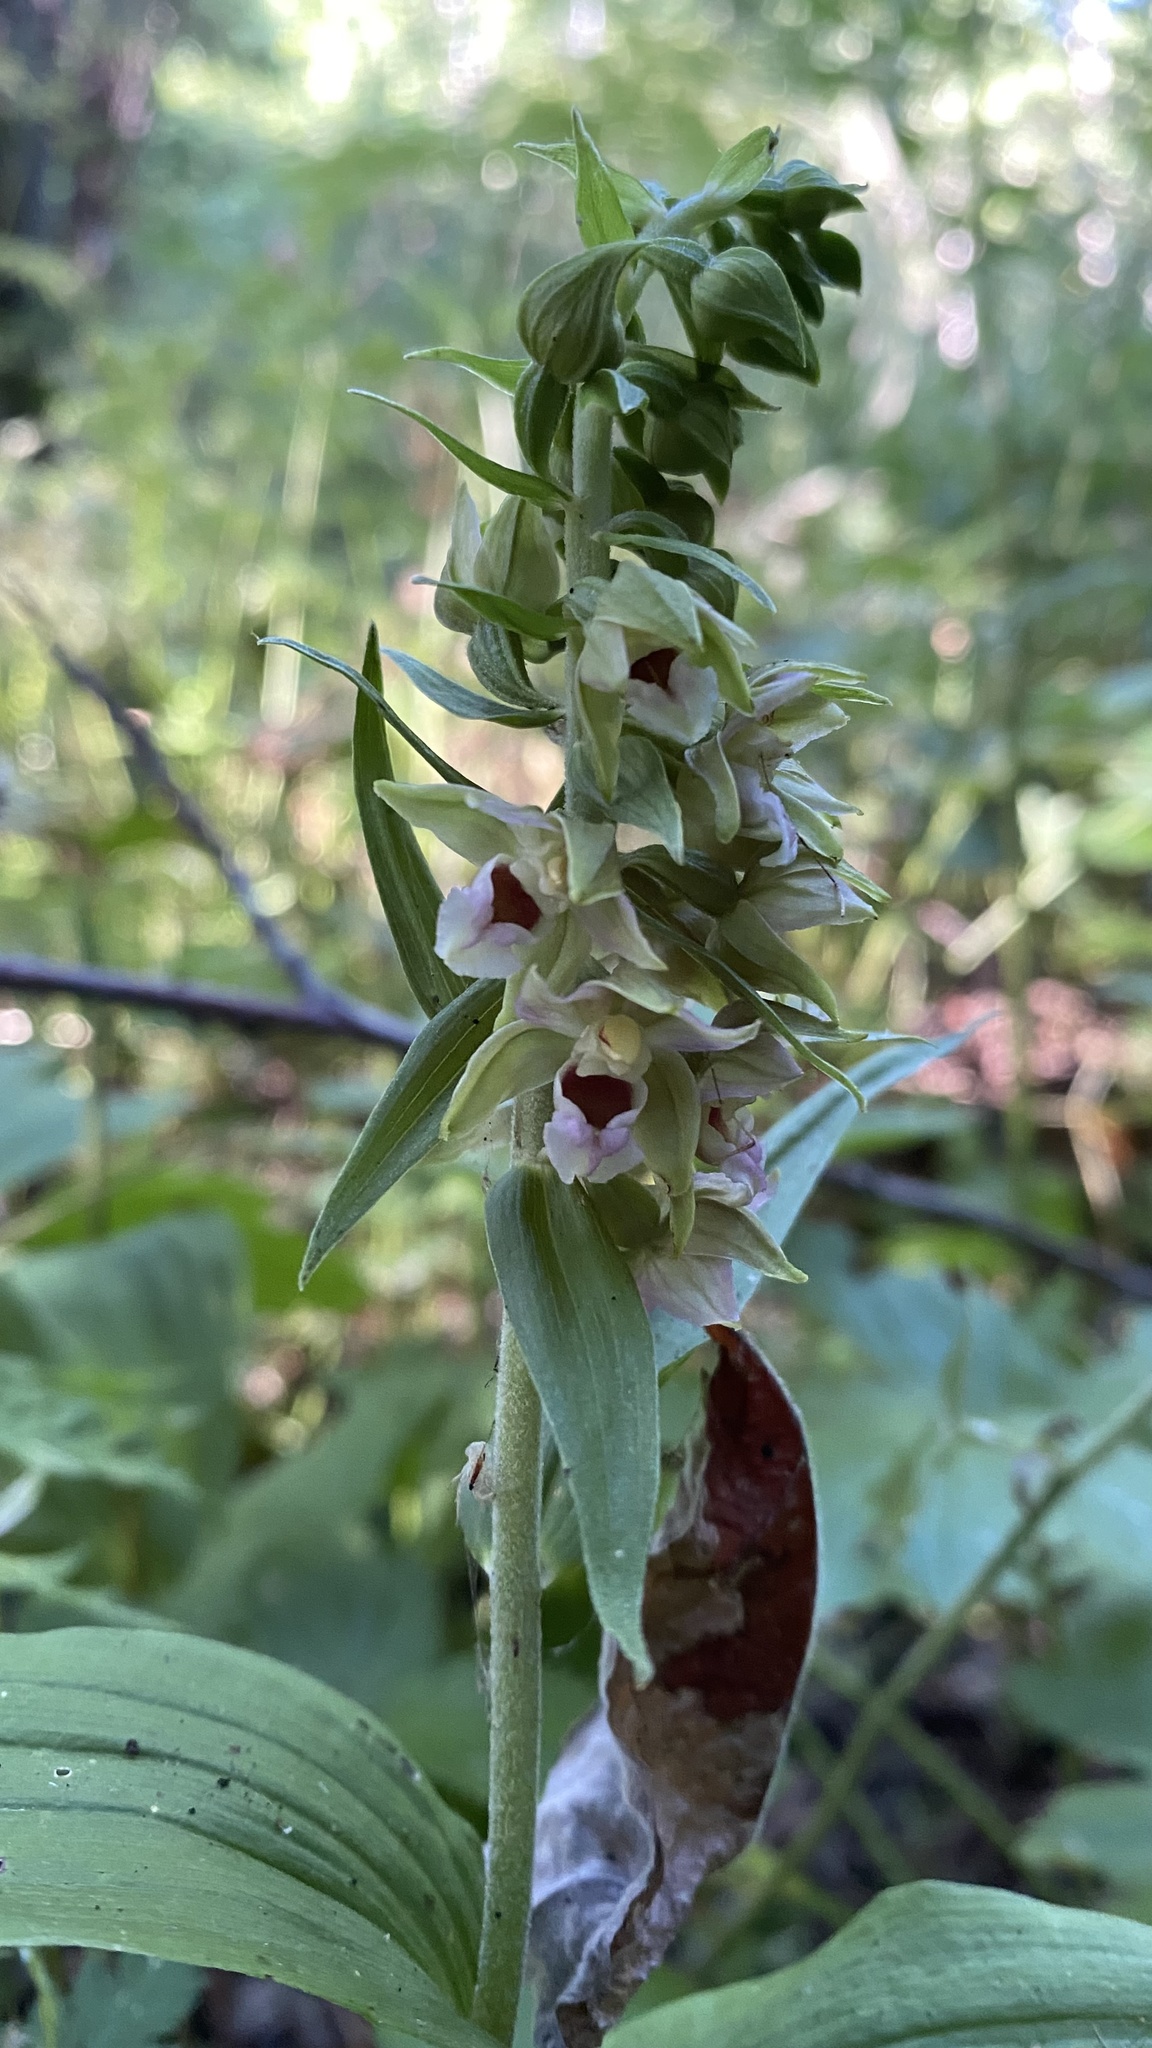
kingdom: Plantae
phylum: Tracheophyta
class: Liliopsida
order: Asparagales
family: Orchidaceae
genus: Epipactis
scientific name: Epipactis helleborine
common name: Broad-leaved helleborine
